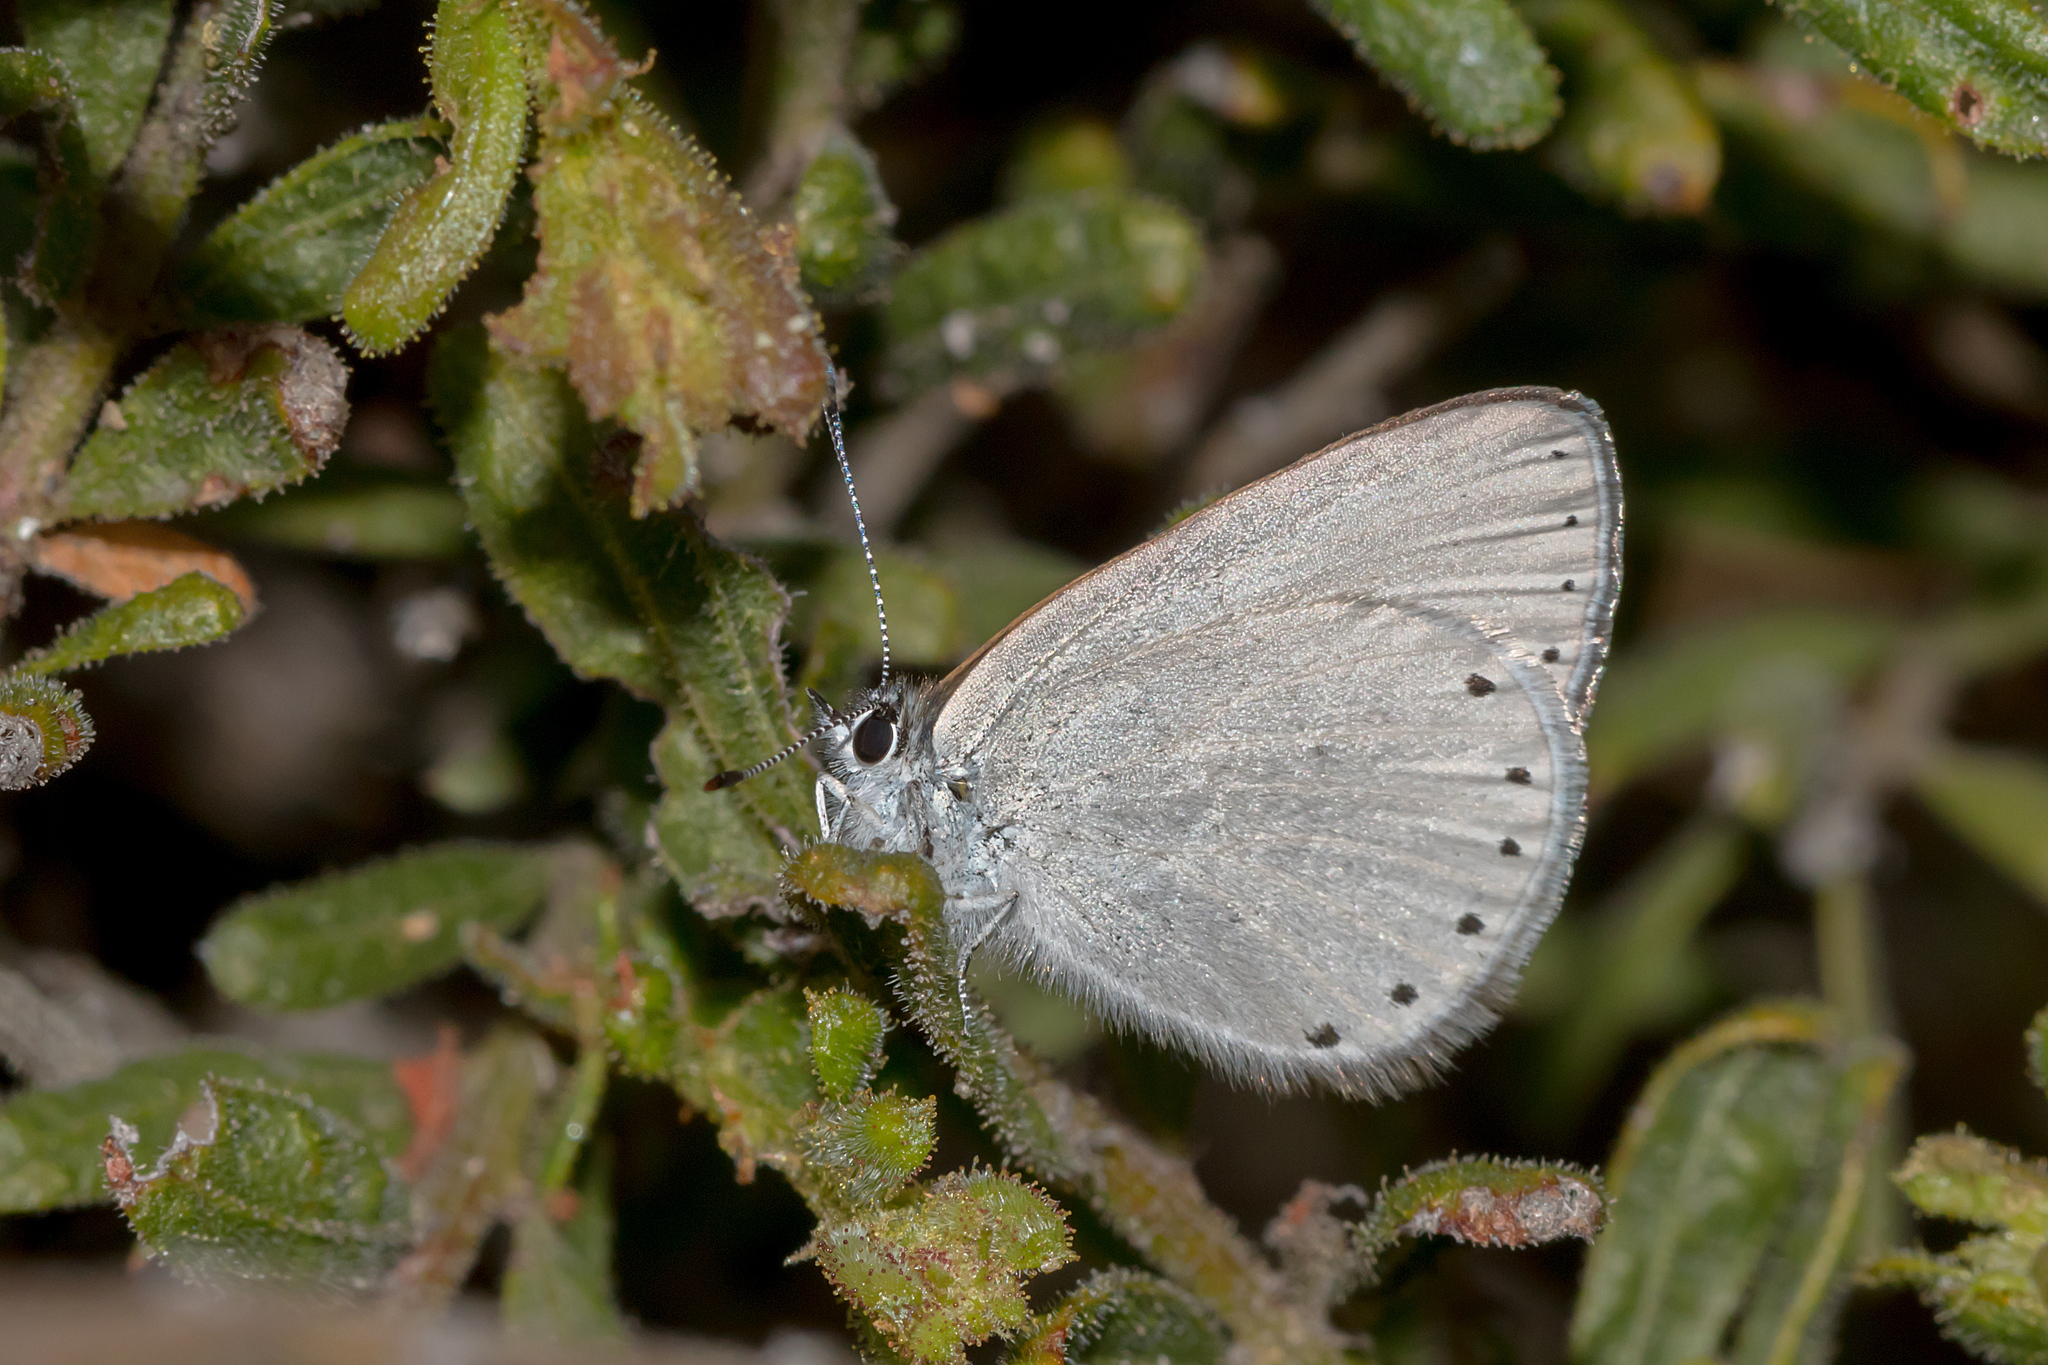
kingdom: Animalia
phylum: Arthropoda
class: Insecta
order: Lepidoptera
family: Lycaenidae
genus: Candalides
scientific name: Candalides heathi
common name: Rayed blue
